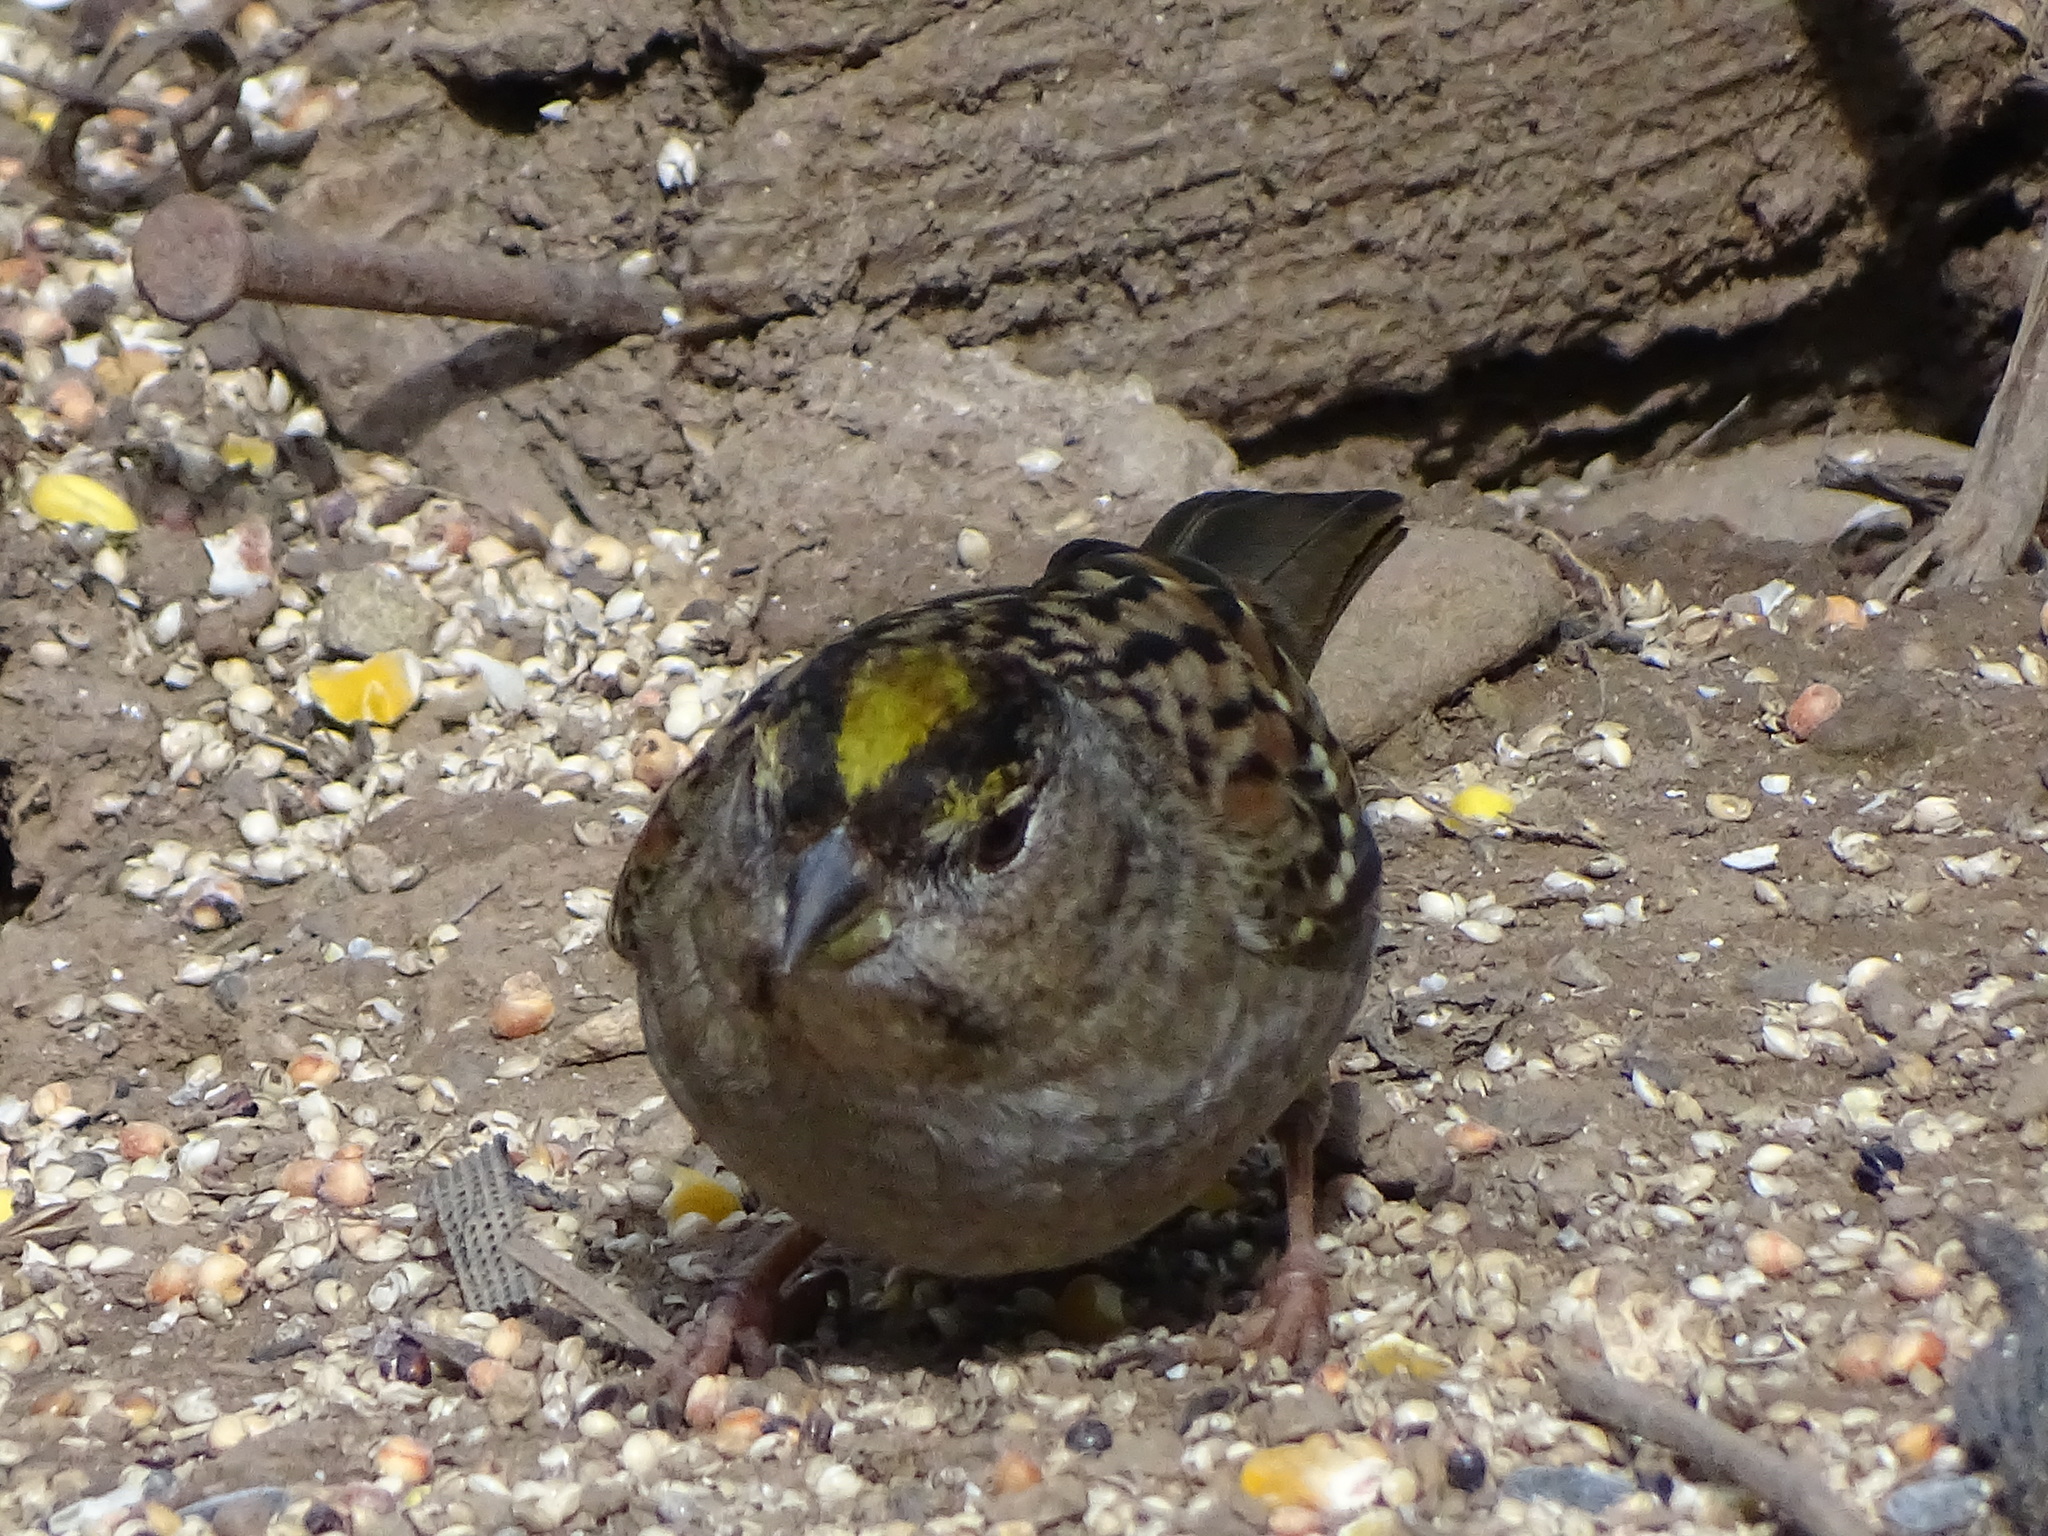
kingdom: Animalia
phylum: Chordata
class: Aves
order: Passeriformes
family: Passerellidae
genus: Zonotrichia
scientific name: Zonotrichia atricapilla
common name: Golden-crowned sparrow
